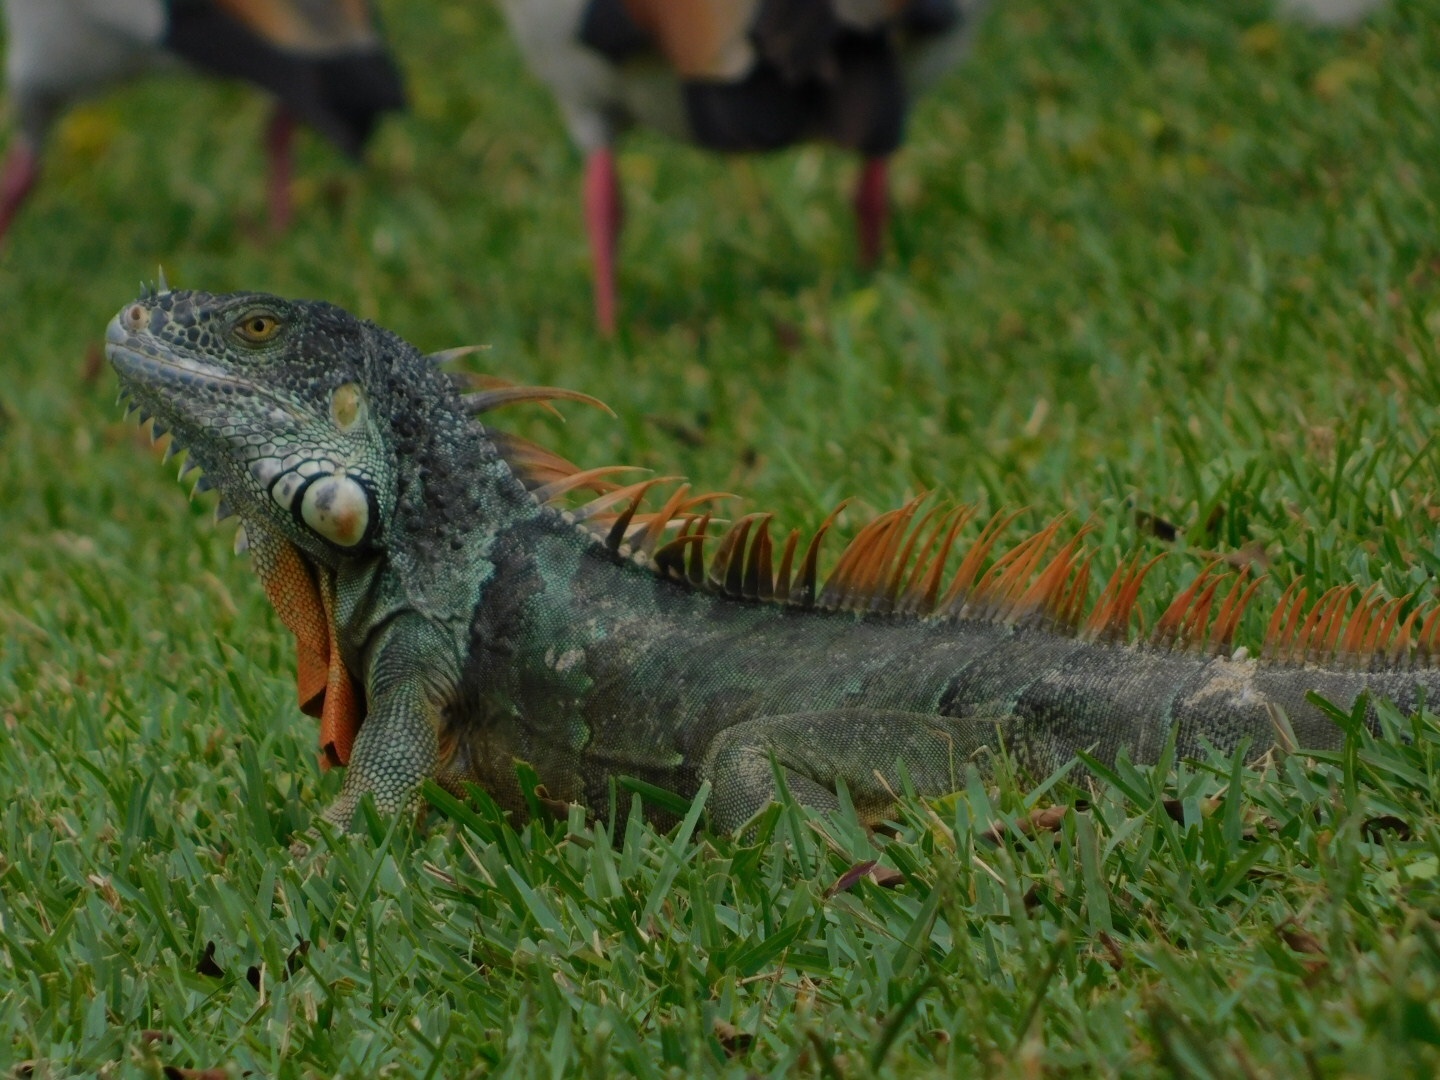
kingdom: Animalia
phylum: Chordata
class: Squamata
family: Iguanidae
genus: Iguana
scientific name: Iguana iguana
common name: Green iguana
